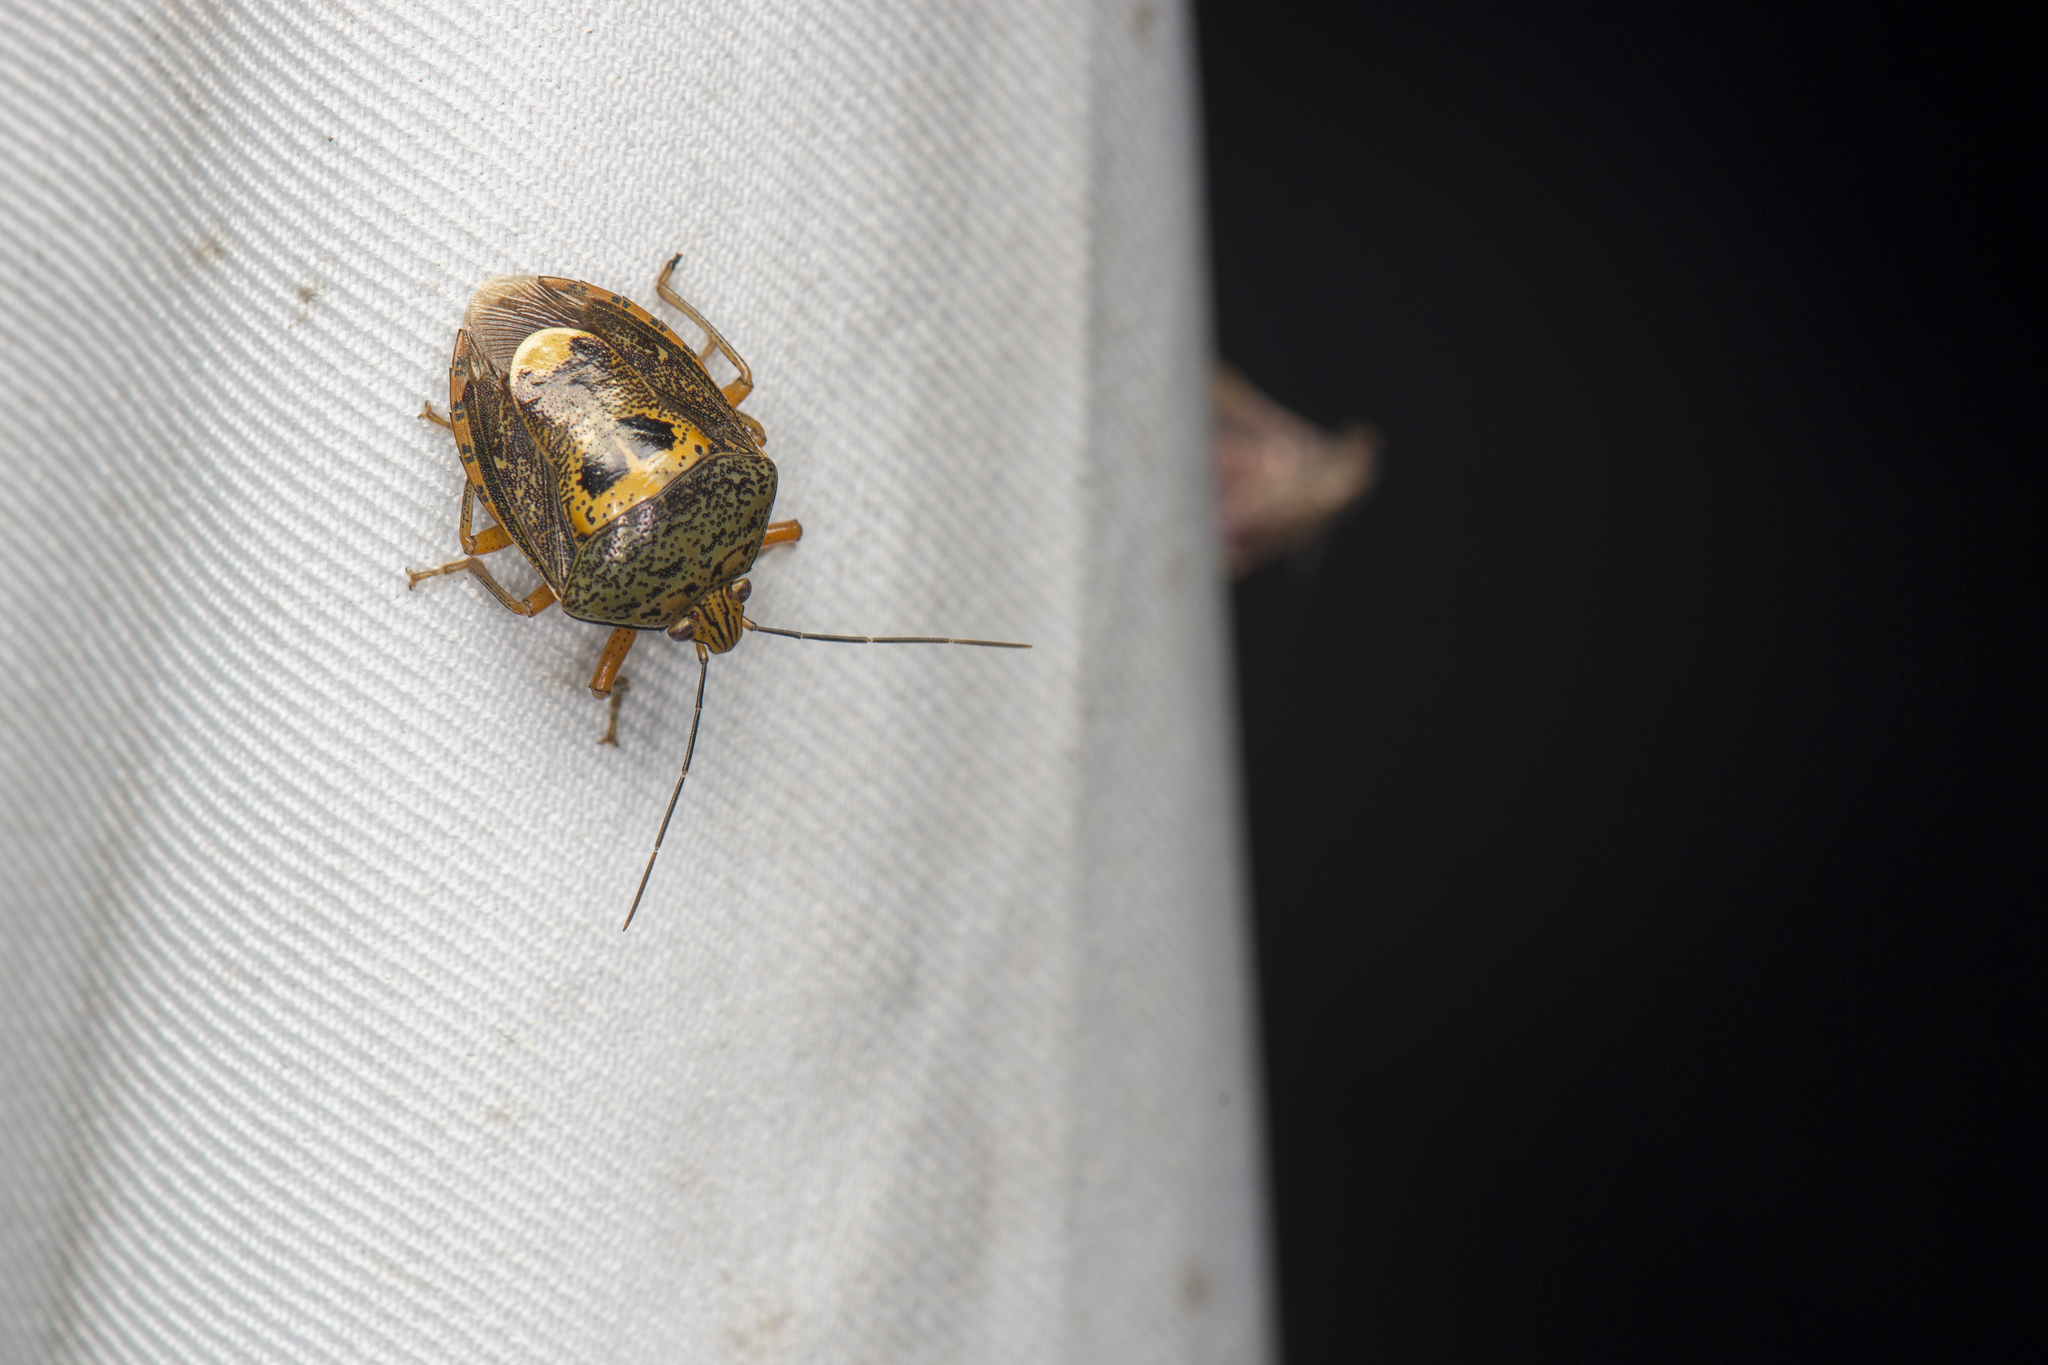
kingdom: Animalia
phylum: Arthropoda
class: Insecta
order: Hemiptera
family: Pentatomidae
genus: Axiagastus
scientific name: Axiagastus rosmarus
